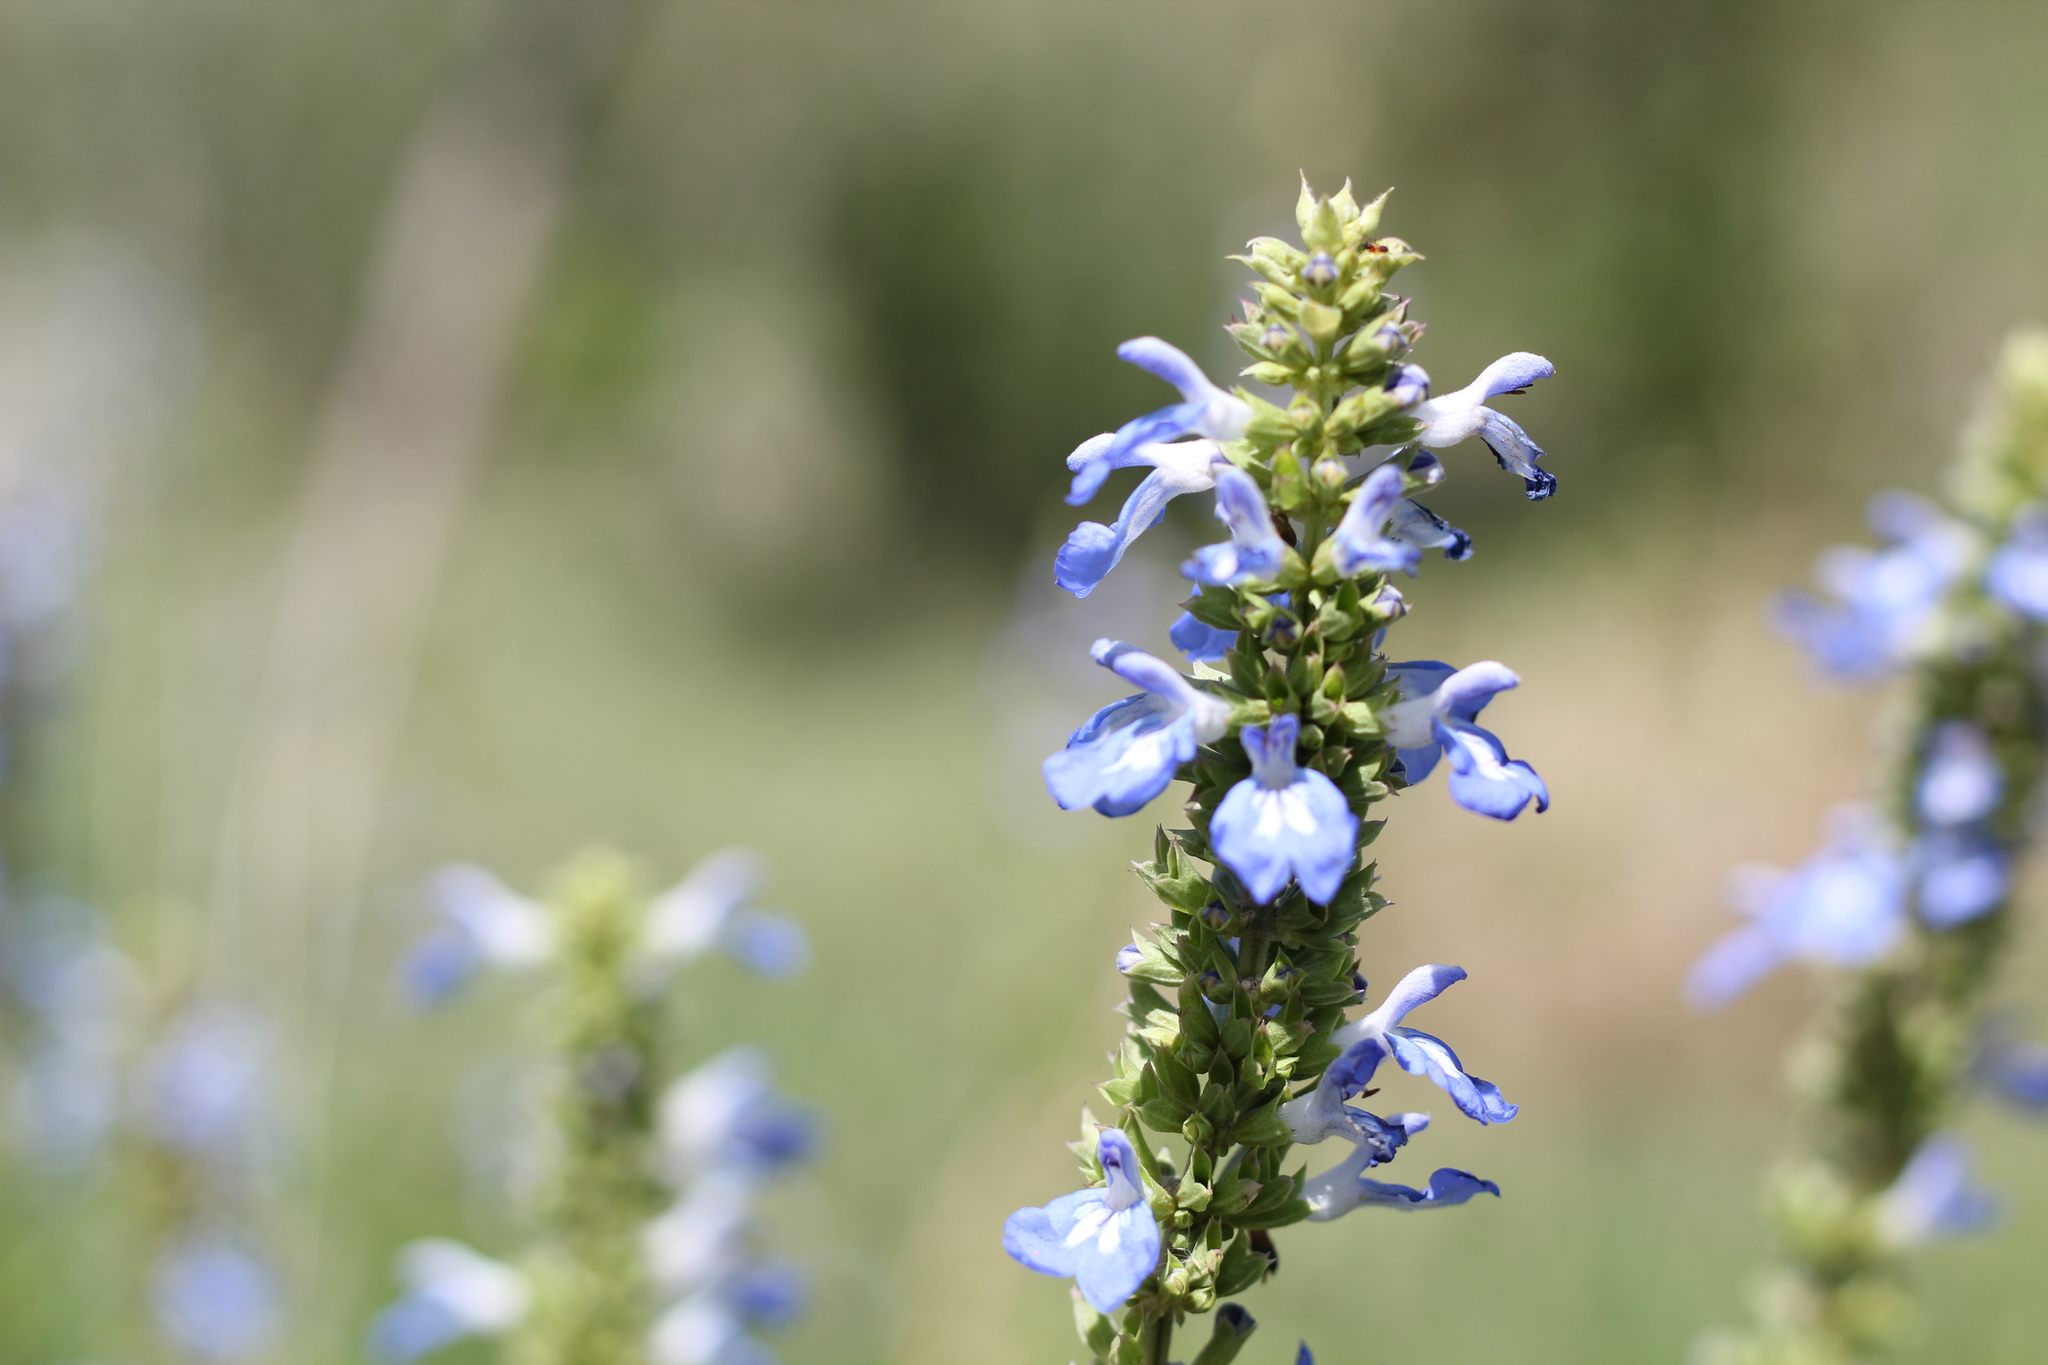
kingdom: Plantae
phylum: Tracheophyta
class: Magnoliopsida
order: Lamiales
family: Lamiaceae
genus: Salvia
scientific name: Salvia uliginosa
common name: Bog sage
